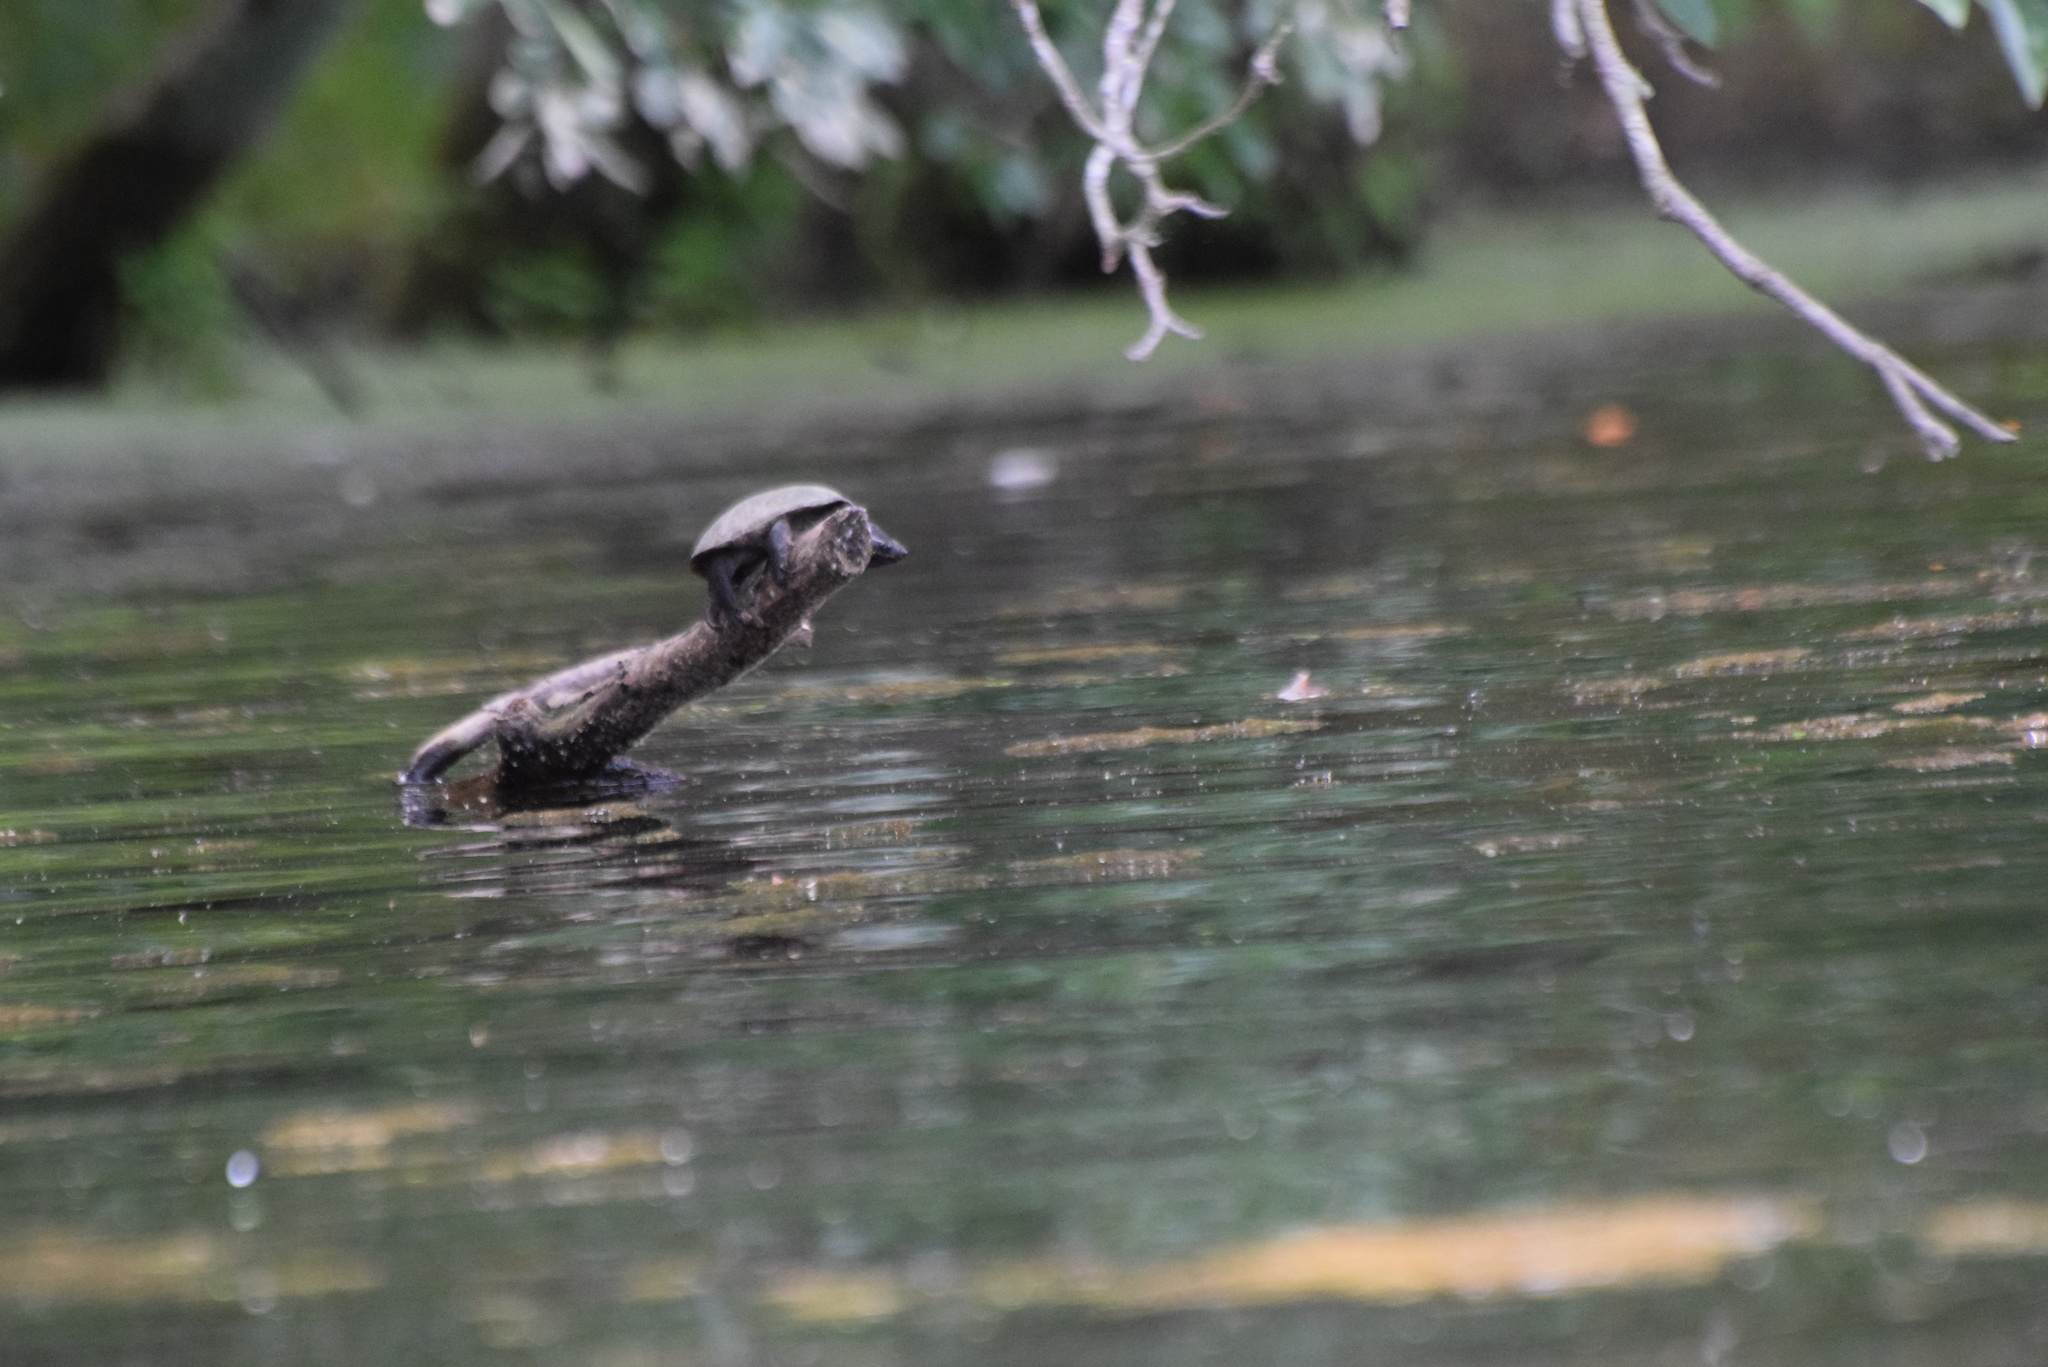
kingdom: Animalia
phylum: Chordata
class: Testudines
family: Kinosternidae
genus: Sternotherus
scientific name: Sternotherus odoratus
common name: Common musk turtle
